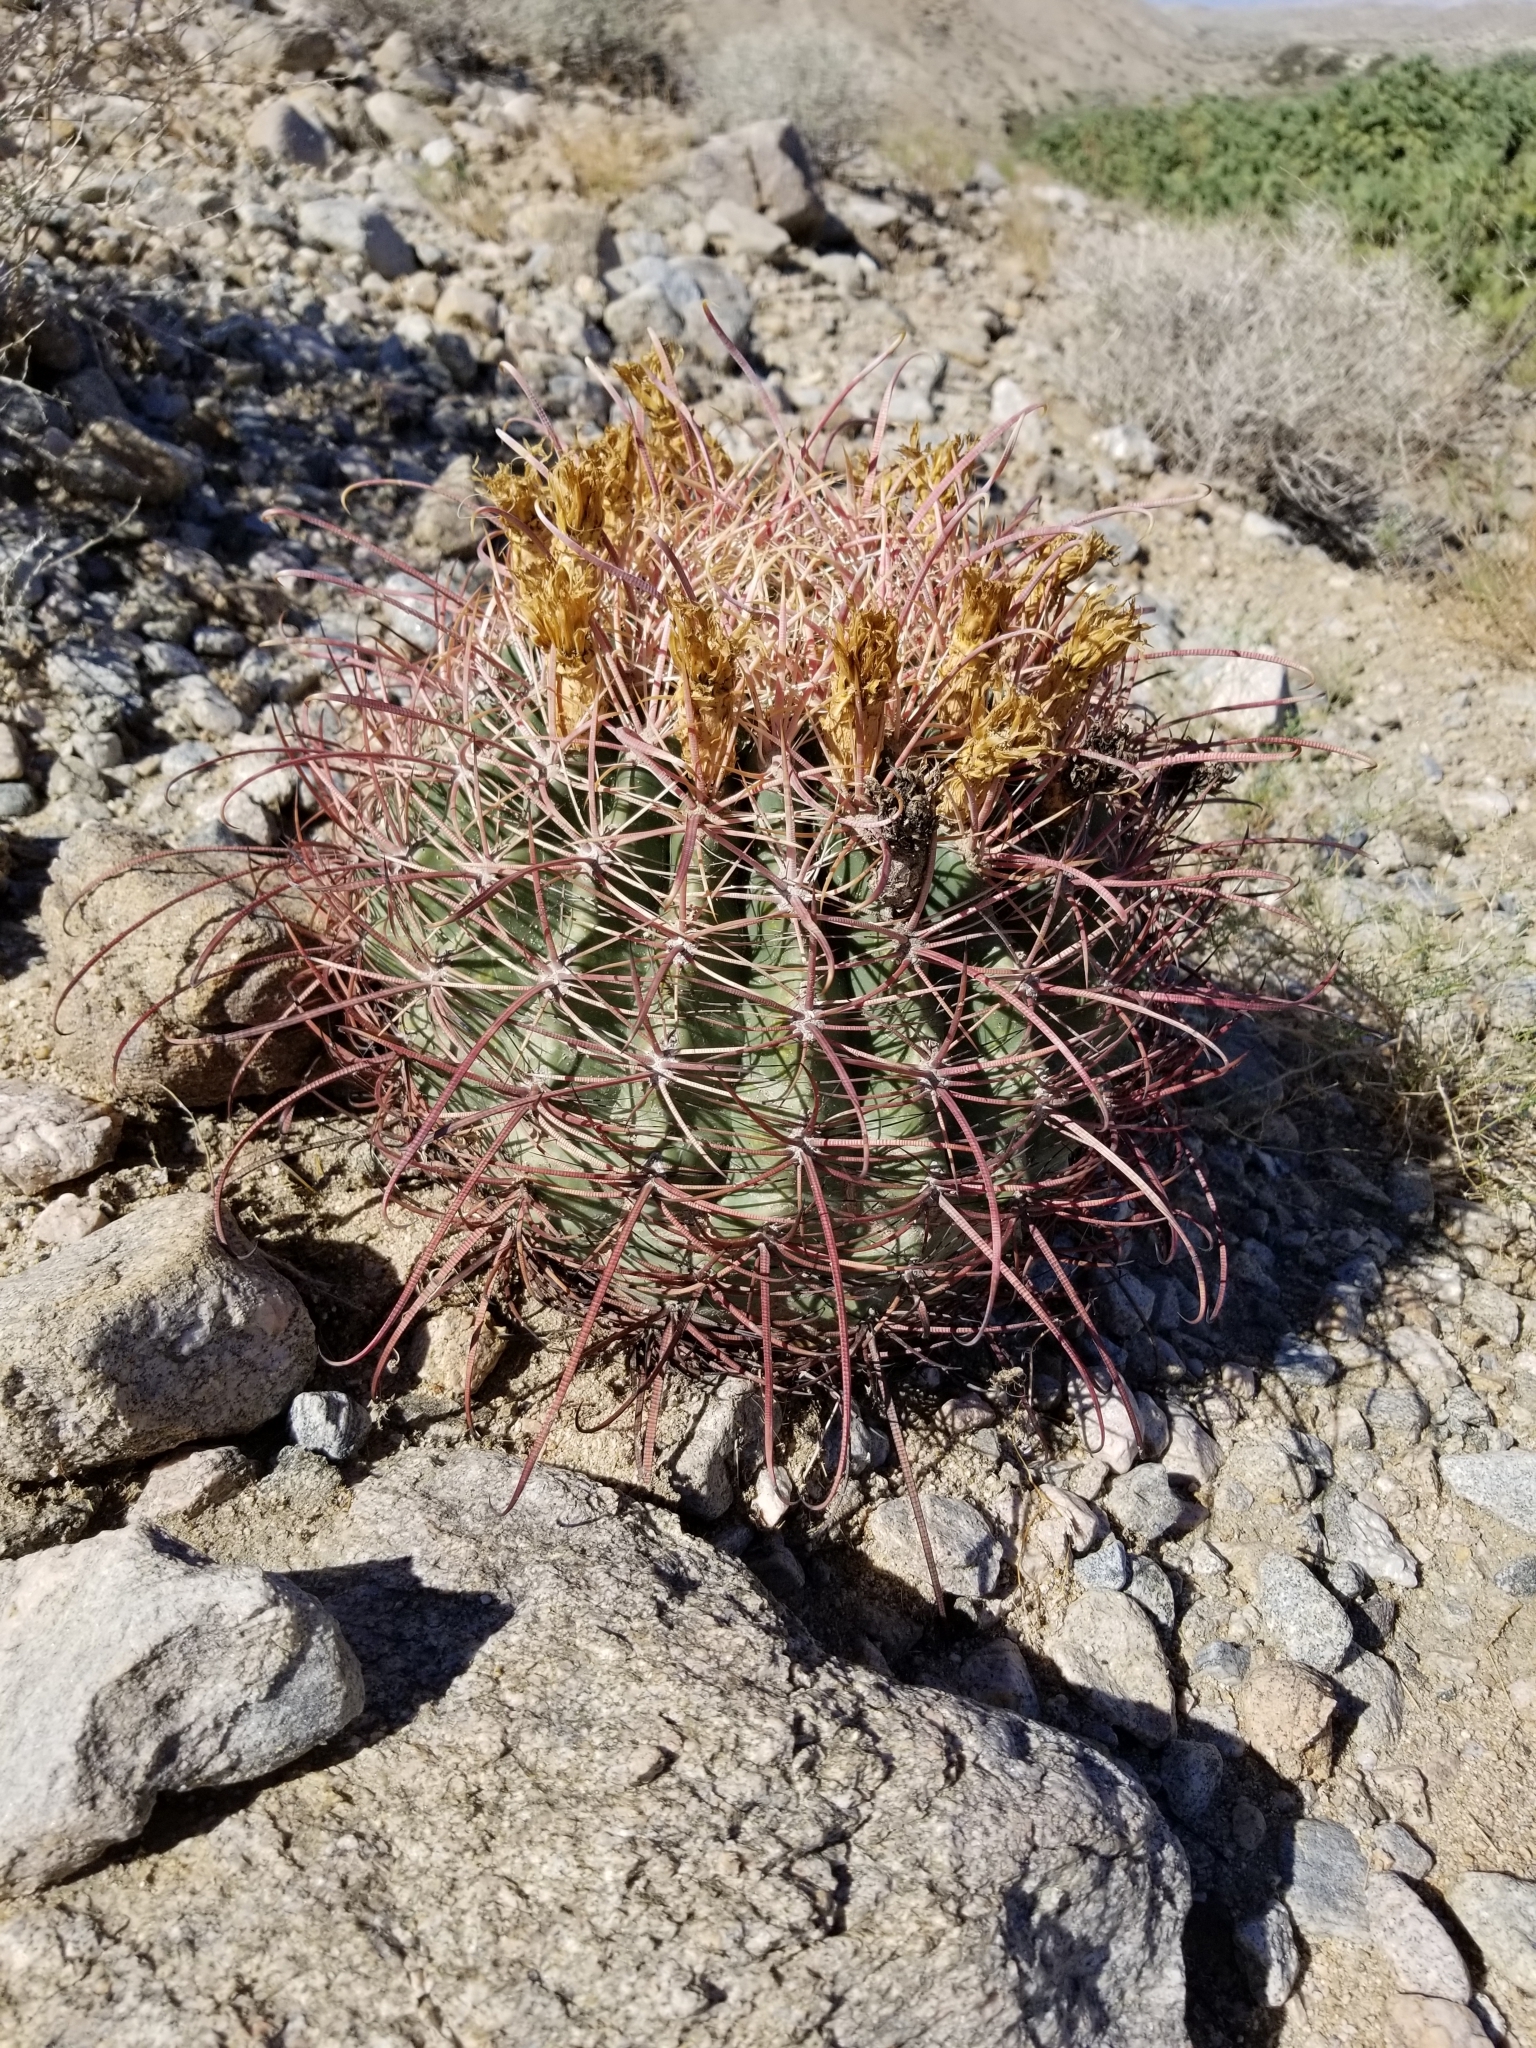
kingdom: Plantae
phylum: Tracheophyta
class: Magnoliopsida
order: Caryophyllales
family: Cactaceae
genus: Ferocactus
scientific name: Ferocactus cylindraceus
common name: California barrel cactus
